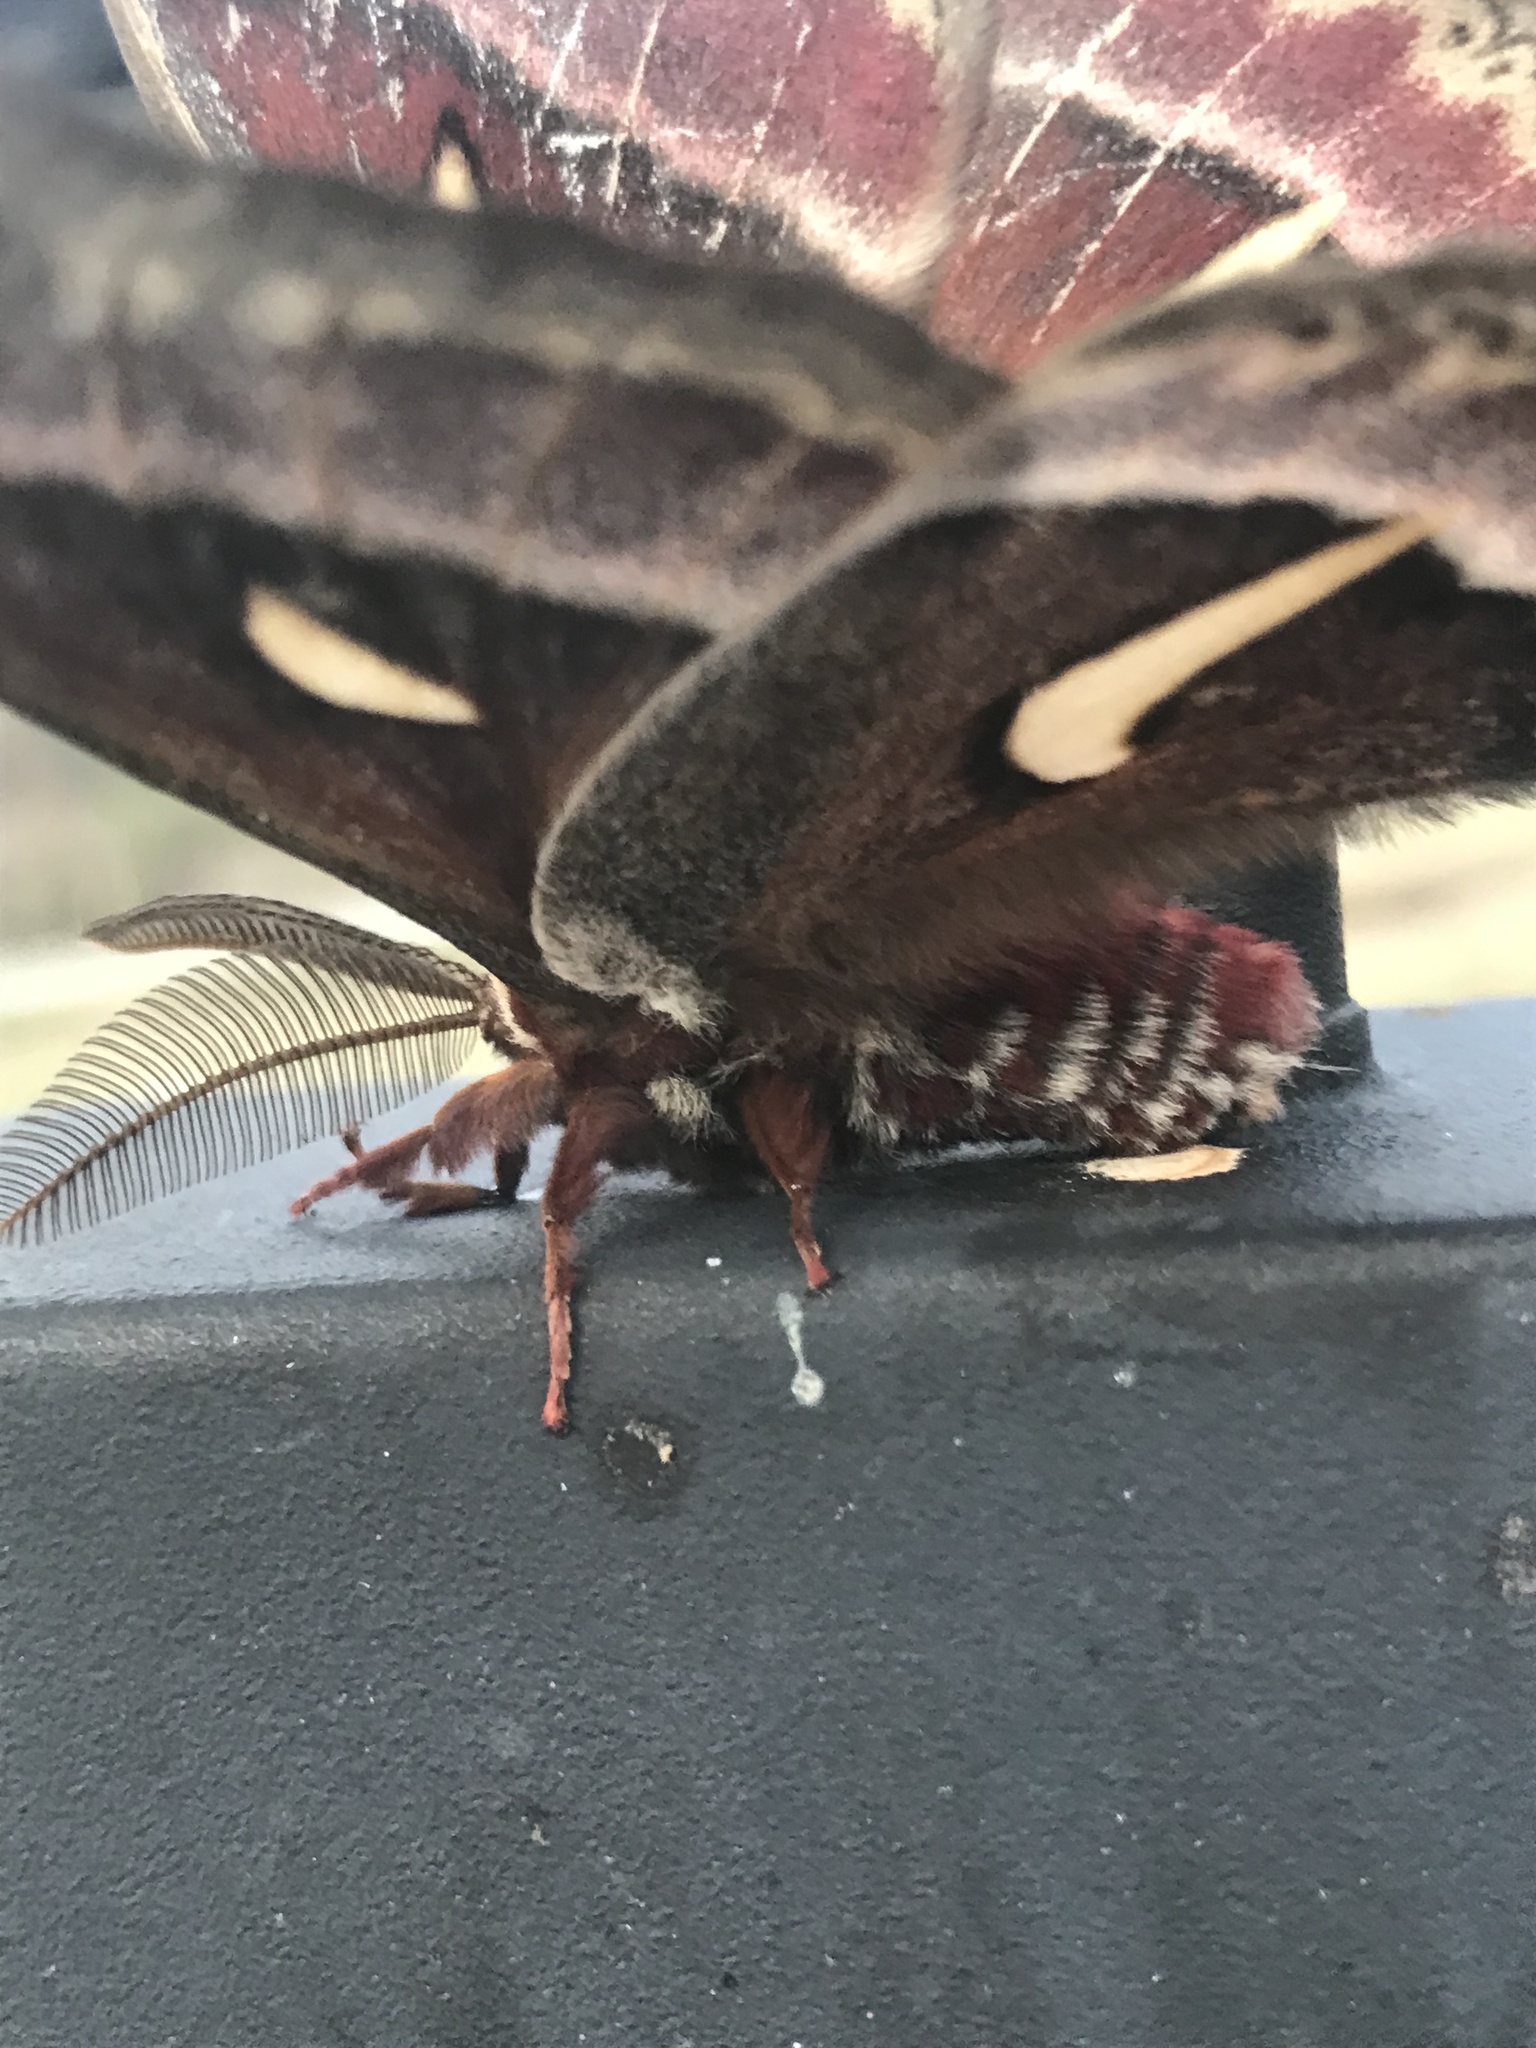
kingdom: Animalia
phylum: Arthropoda
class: Insecta
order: Lepidoptera
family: Saturniidae
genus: Hyalophora
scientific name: Hyalophora euryalus
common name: Ceanothus silkmoth
